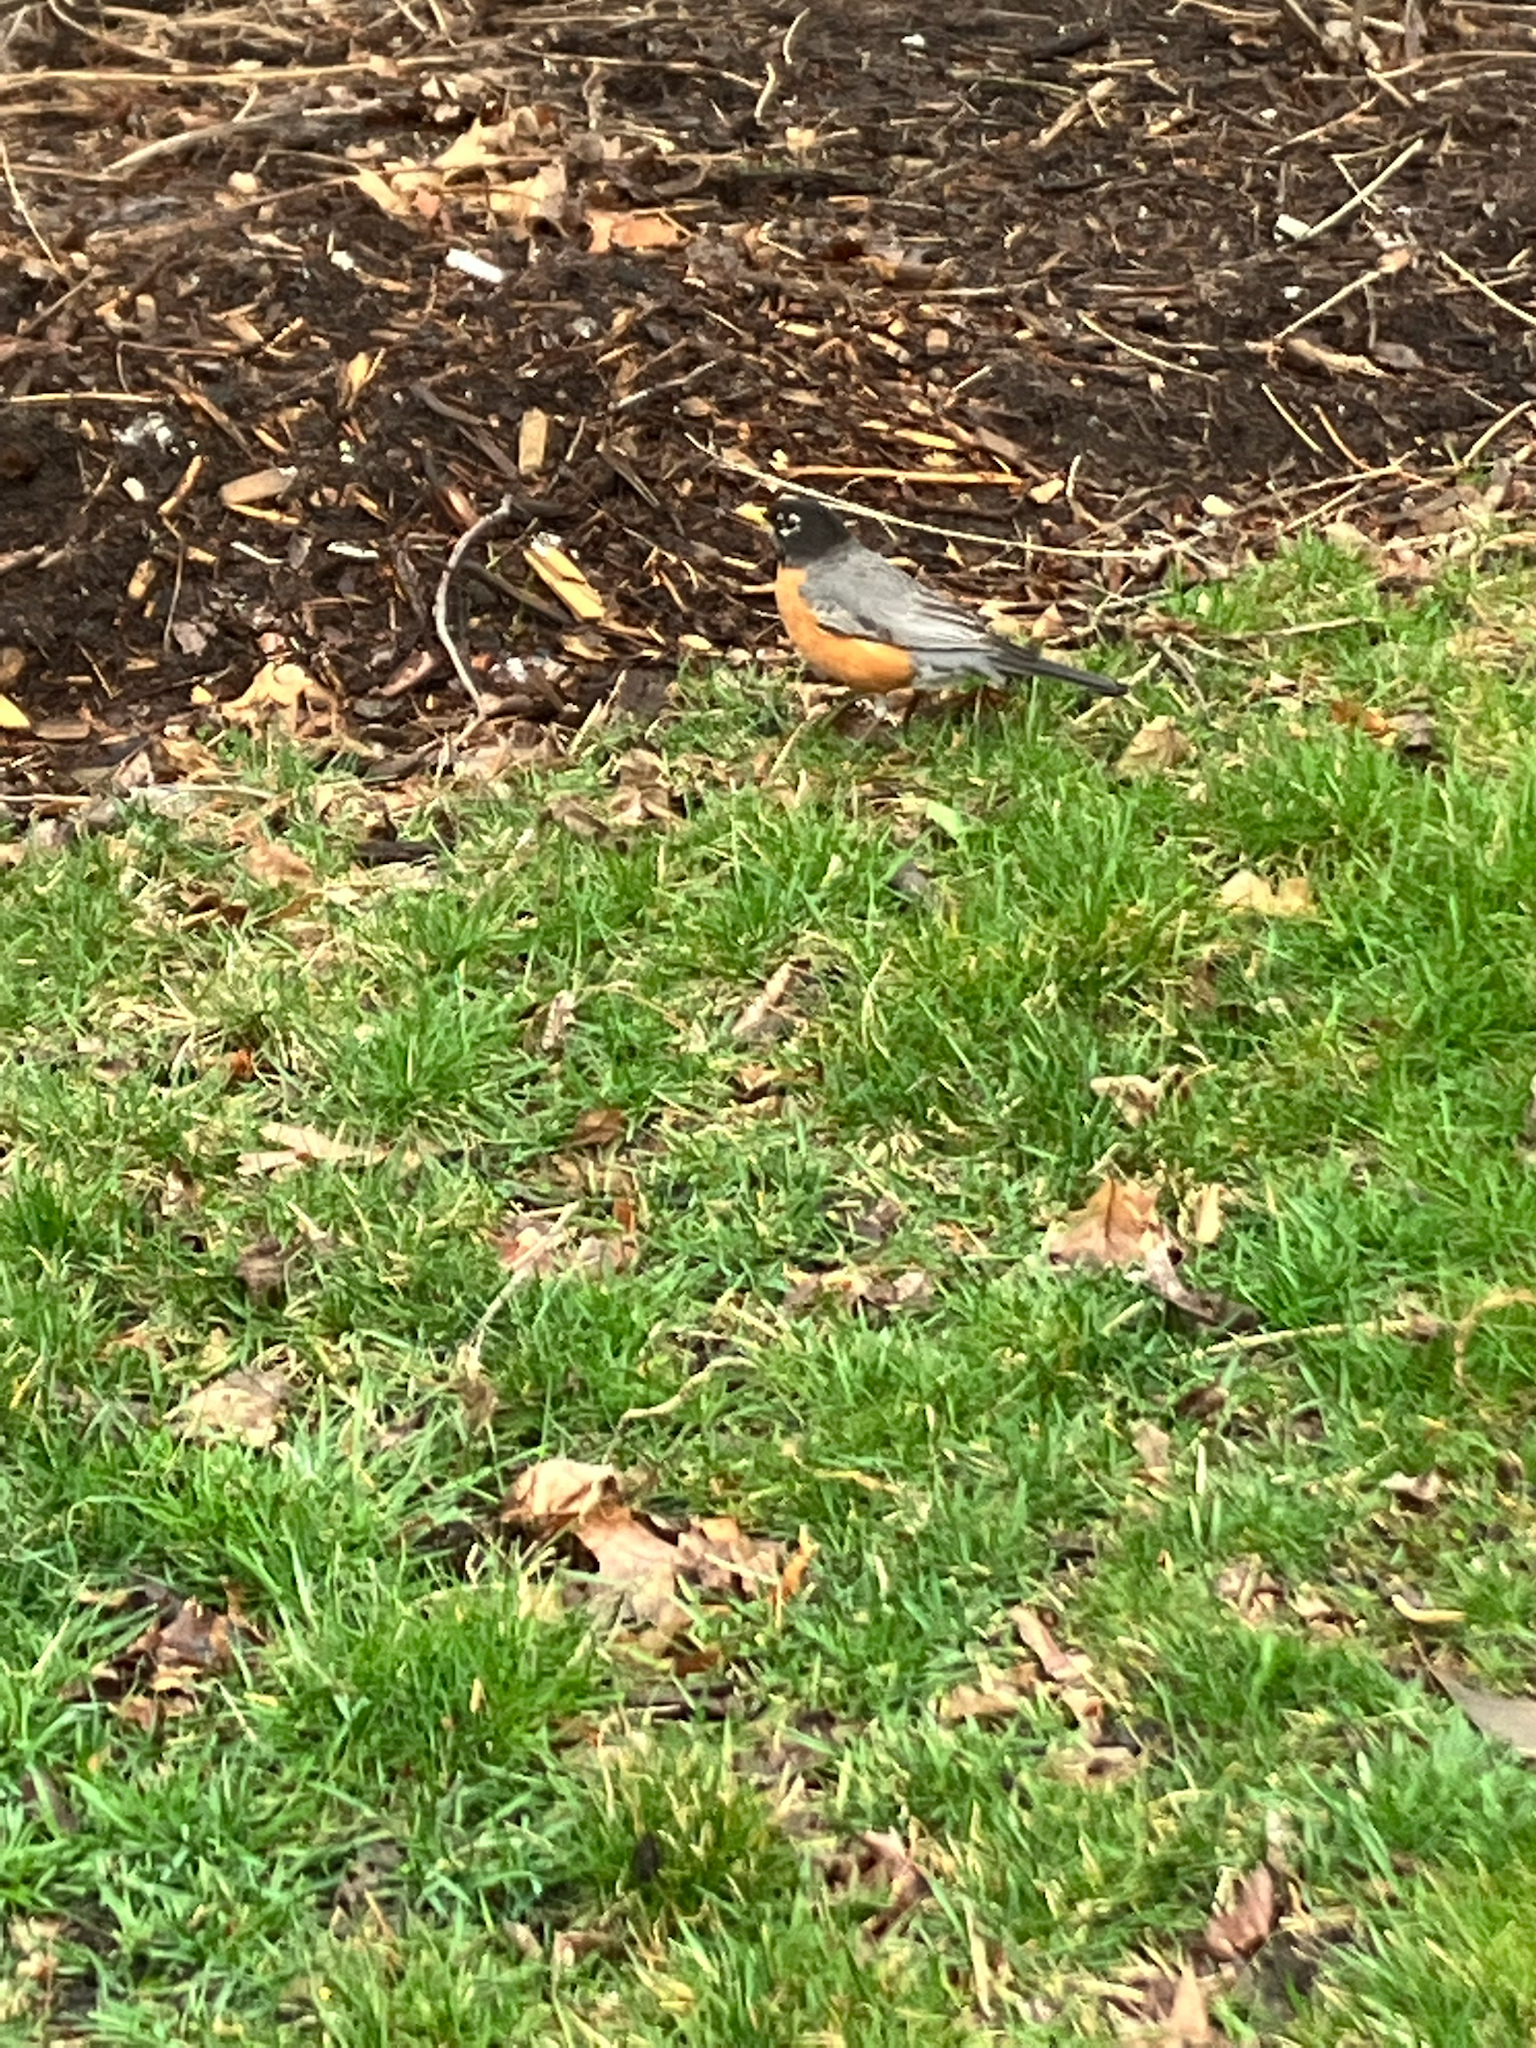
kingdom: Animalia
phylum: Chordata
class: Aves
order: Passeriformes
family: Turdidae
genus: Turdus
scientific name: Turdus migratorius
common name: American robin
